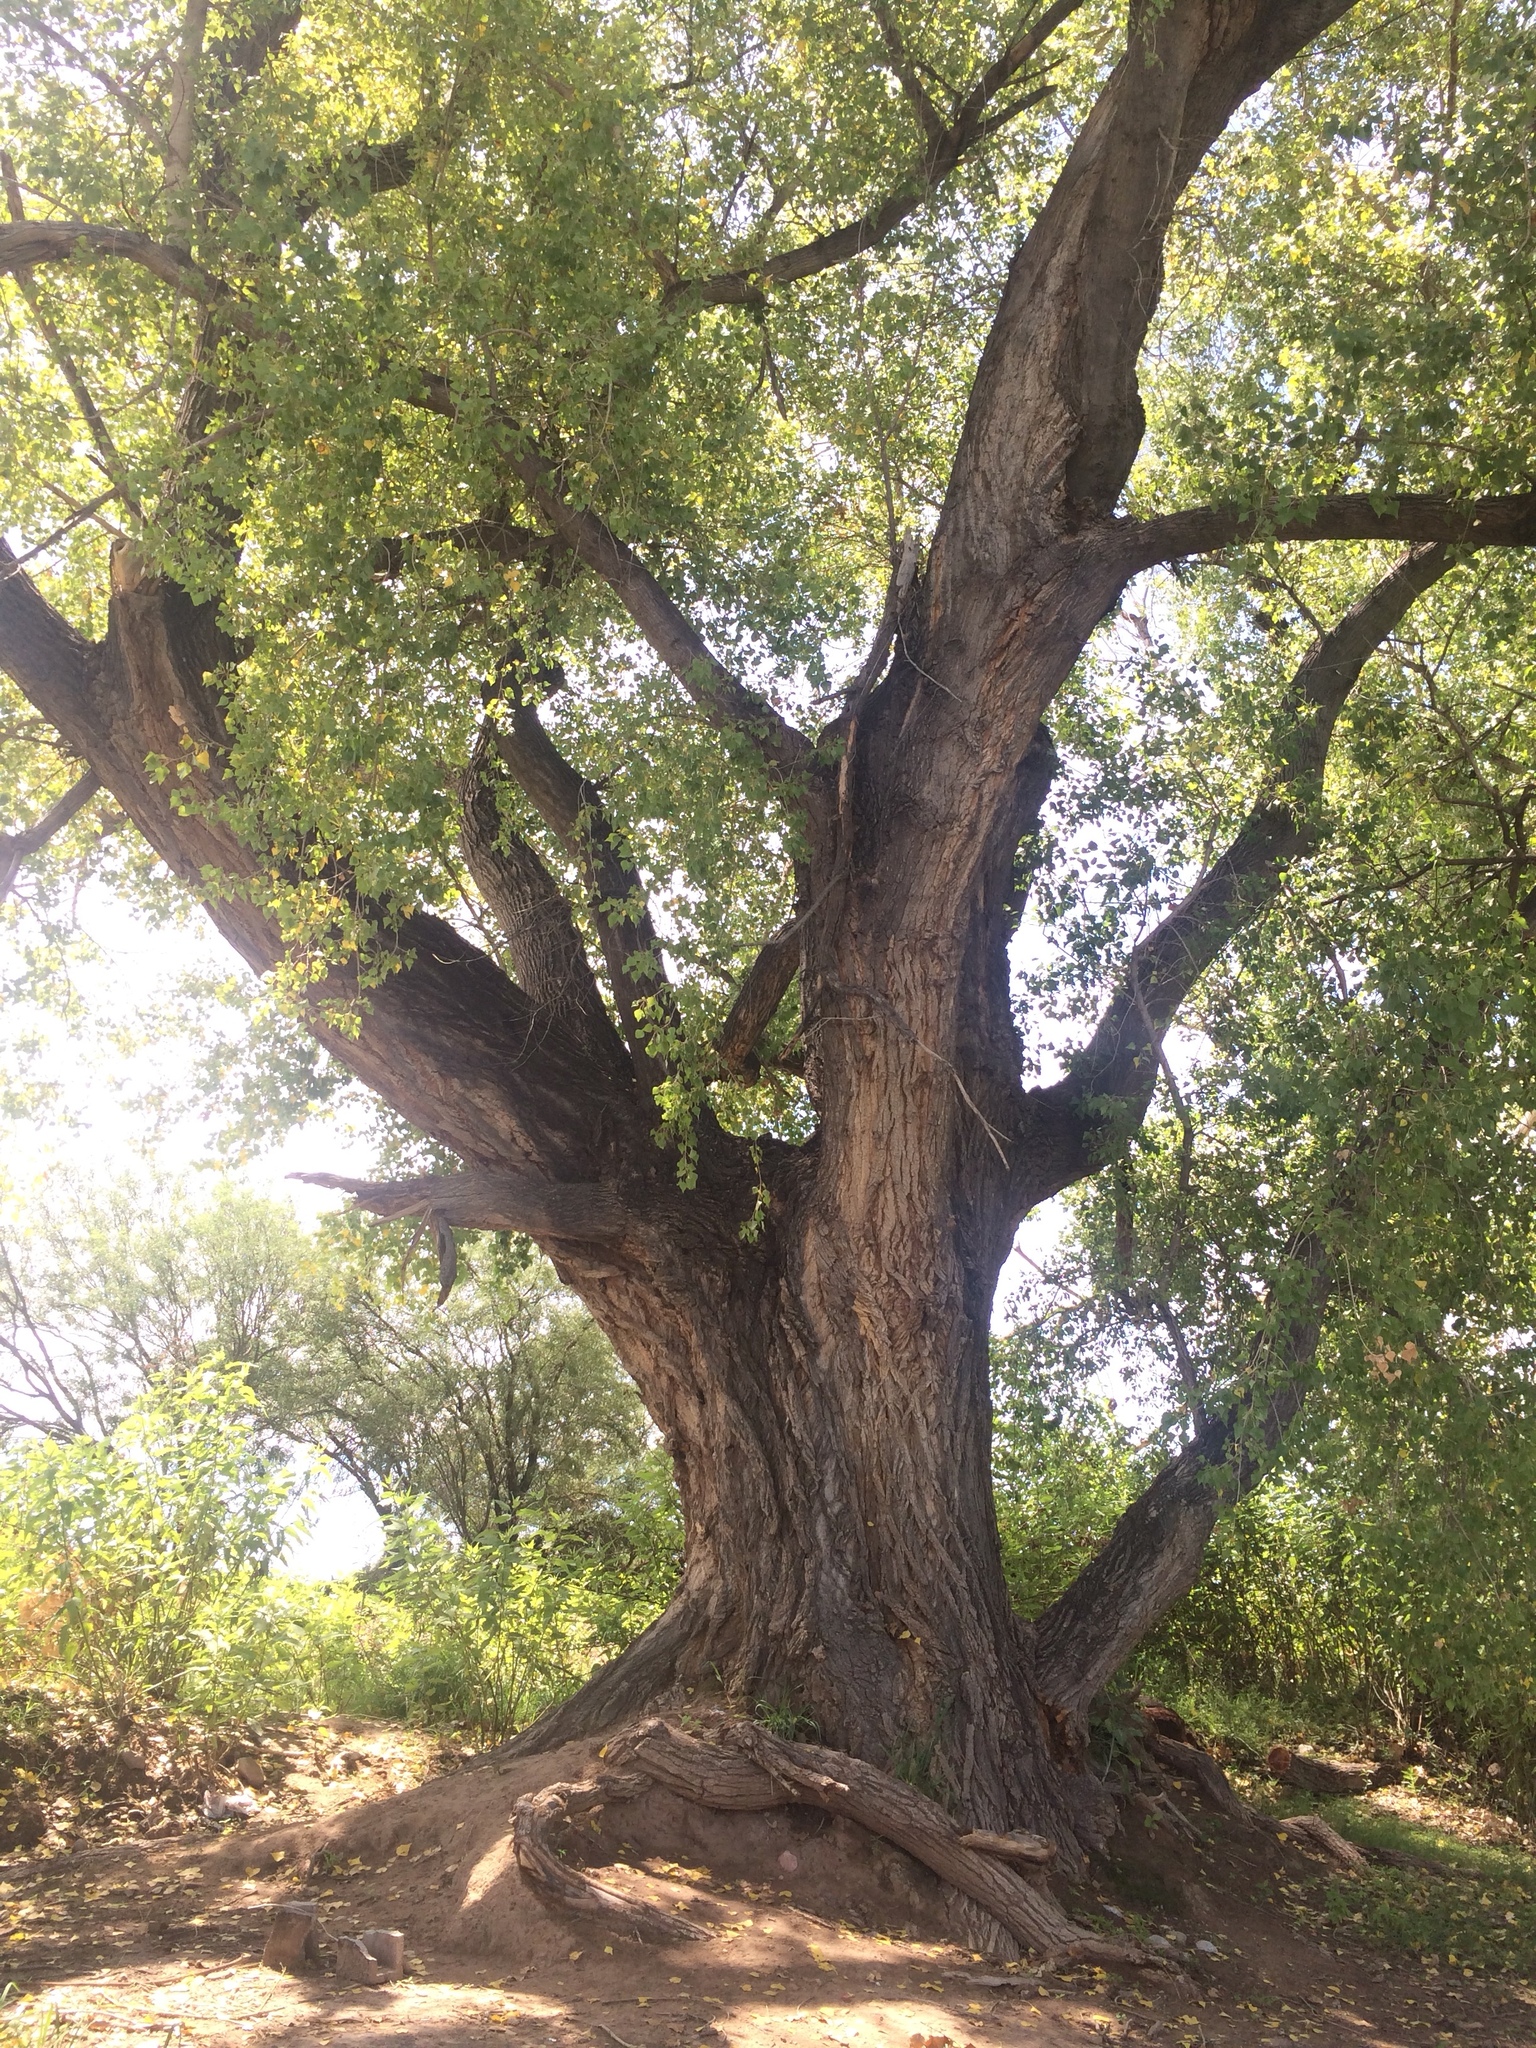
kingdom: Plantae
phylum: Tracheophyta
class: Magnoliopsida
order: Malpighiales
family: Salicaceae
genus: Populus
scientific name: Populus fremontii
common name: Fremont's cottonwood
